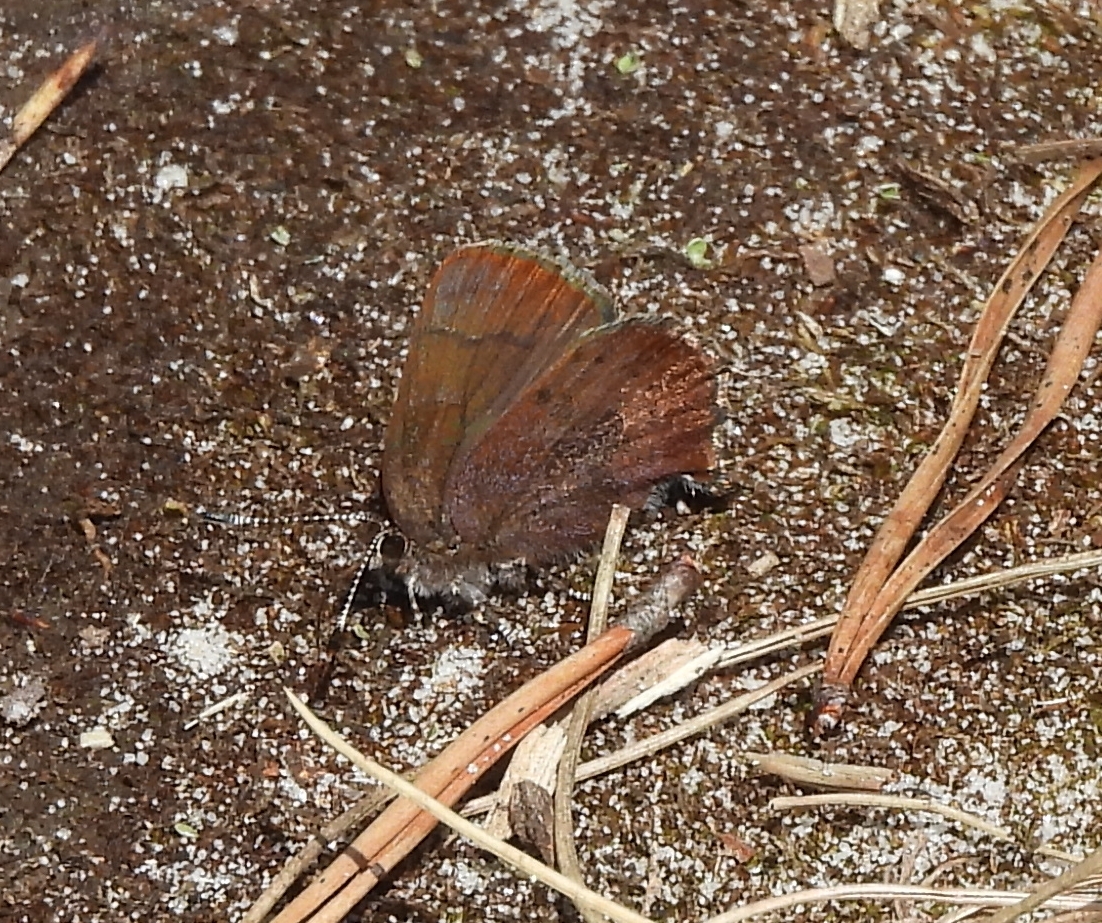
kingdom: Animalia
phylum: Arthropoda
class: Insecta
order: Lepidoptera
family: Lycaenidae
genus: Incisalia
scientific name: Incisalia irioides
